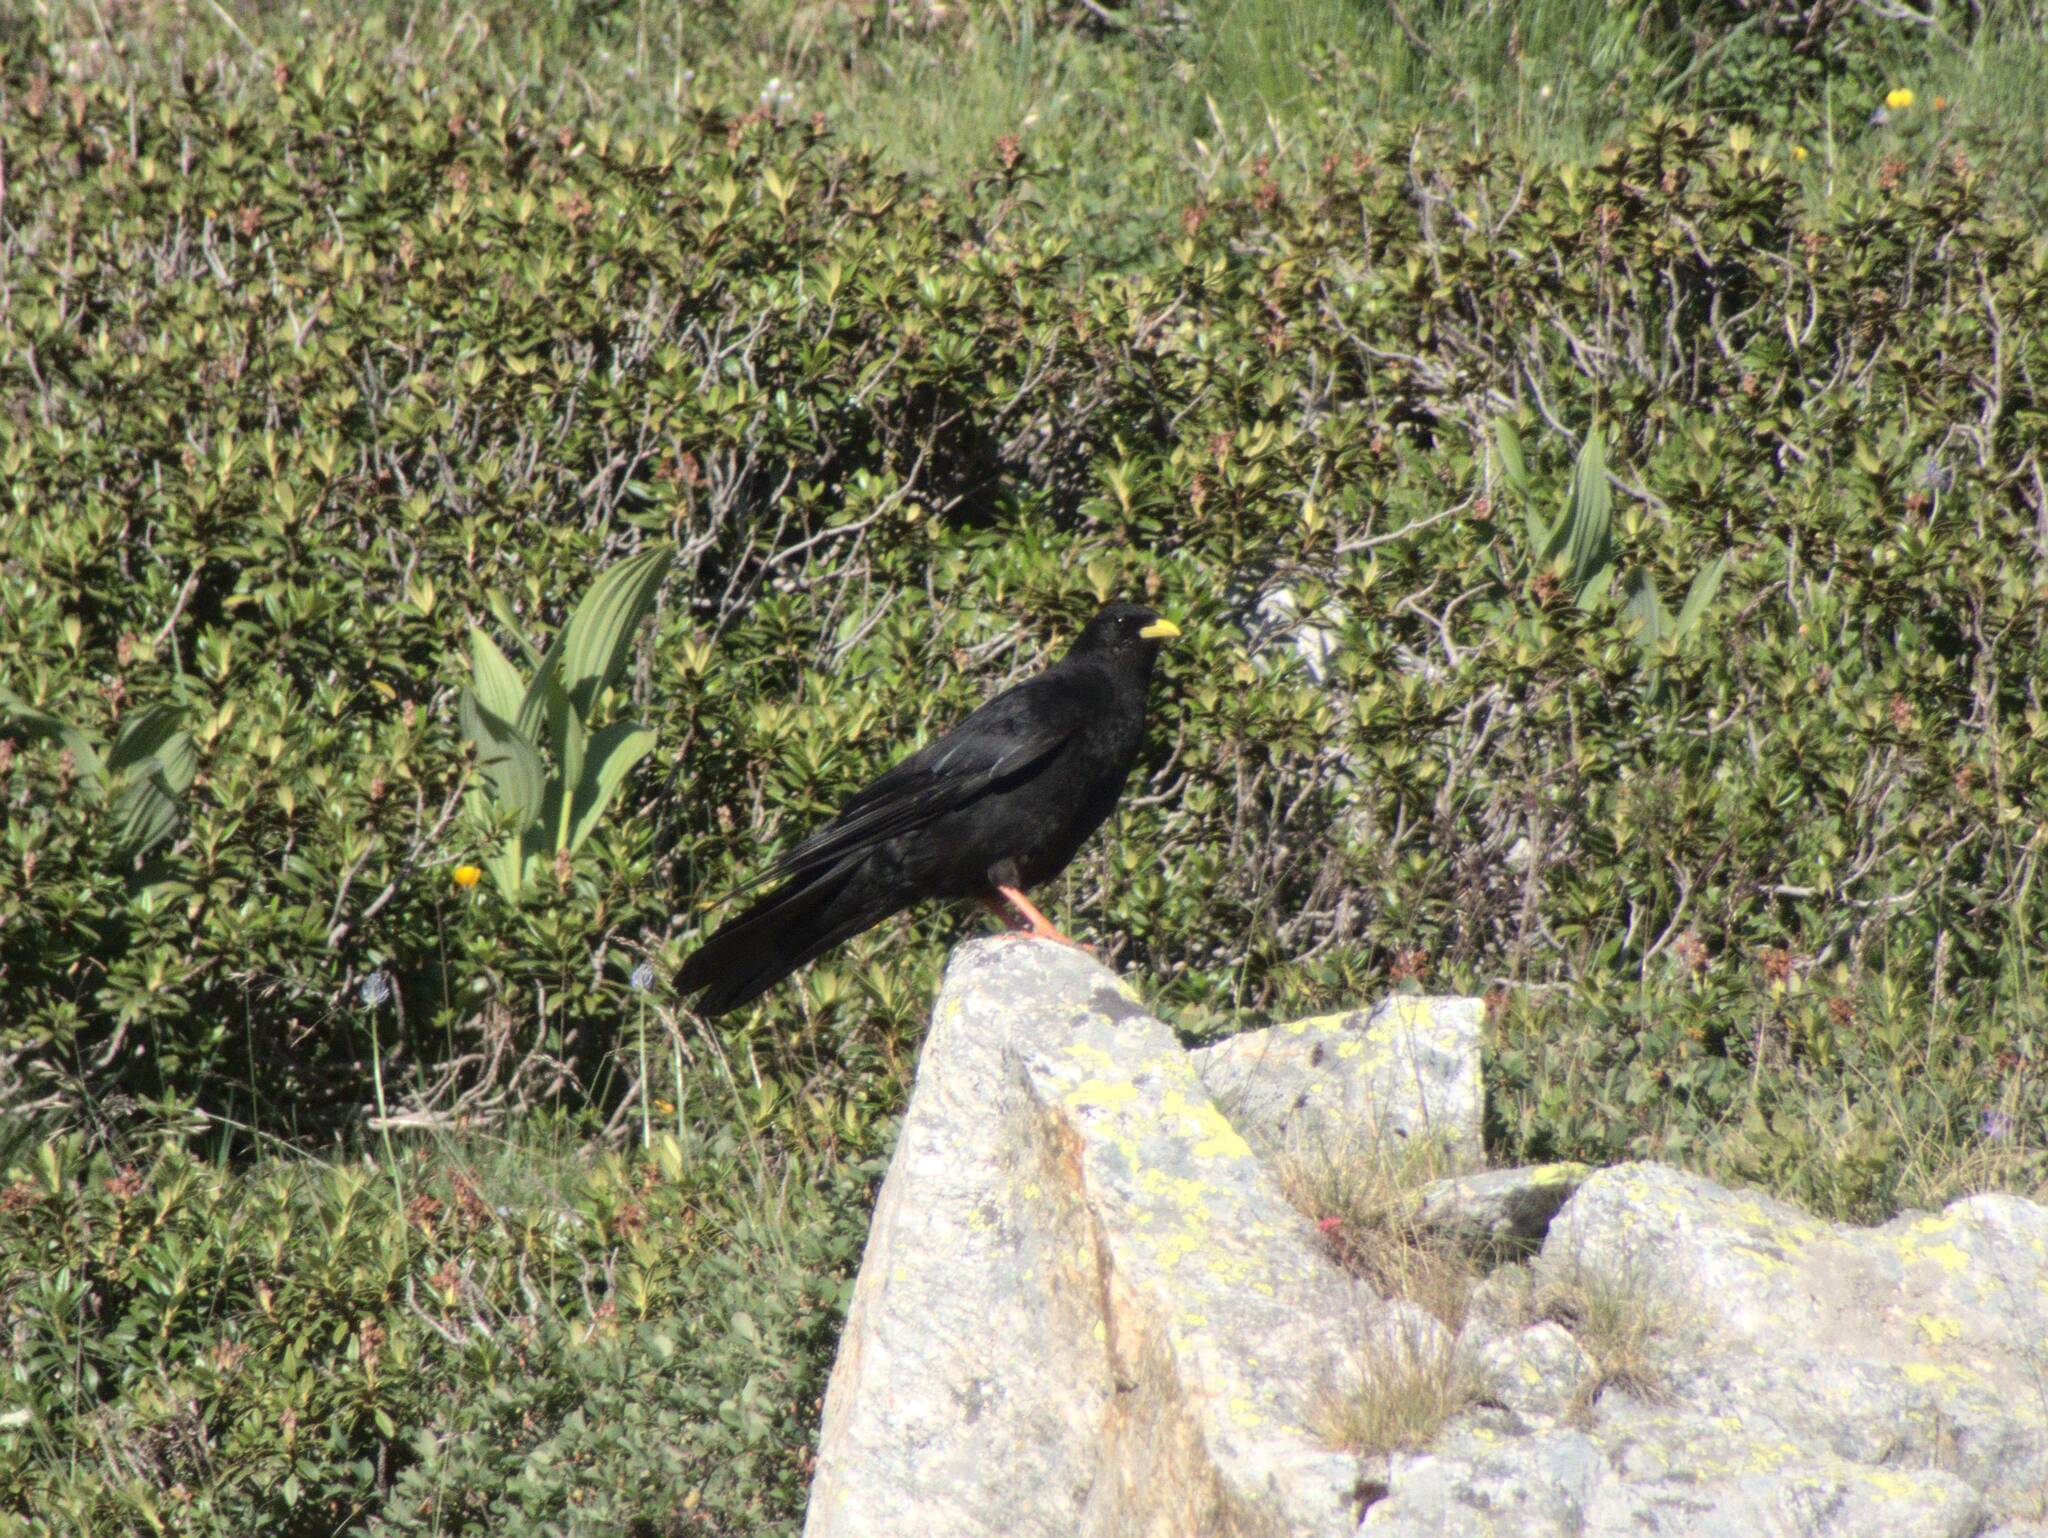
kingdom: Animalia
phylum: Chordata
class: Aves
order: Passeriformes
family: Corvidae
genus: Pyrrhocorax
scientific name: Pyrrhocorax graculus
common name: Alpine chough
